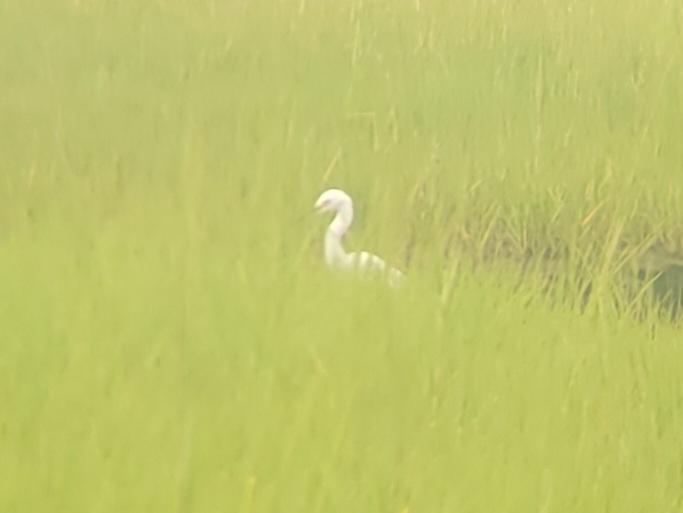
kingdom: Animalia
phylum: Chordata
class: Aves
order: Pelecaniformes
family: Ardeidae
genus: Egretta
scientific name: Egretta thula
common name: Snowy egret
